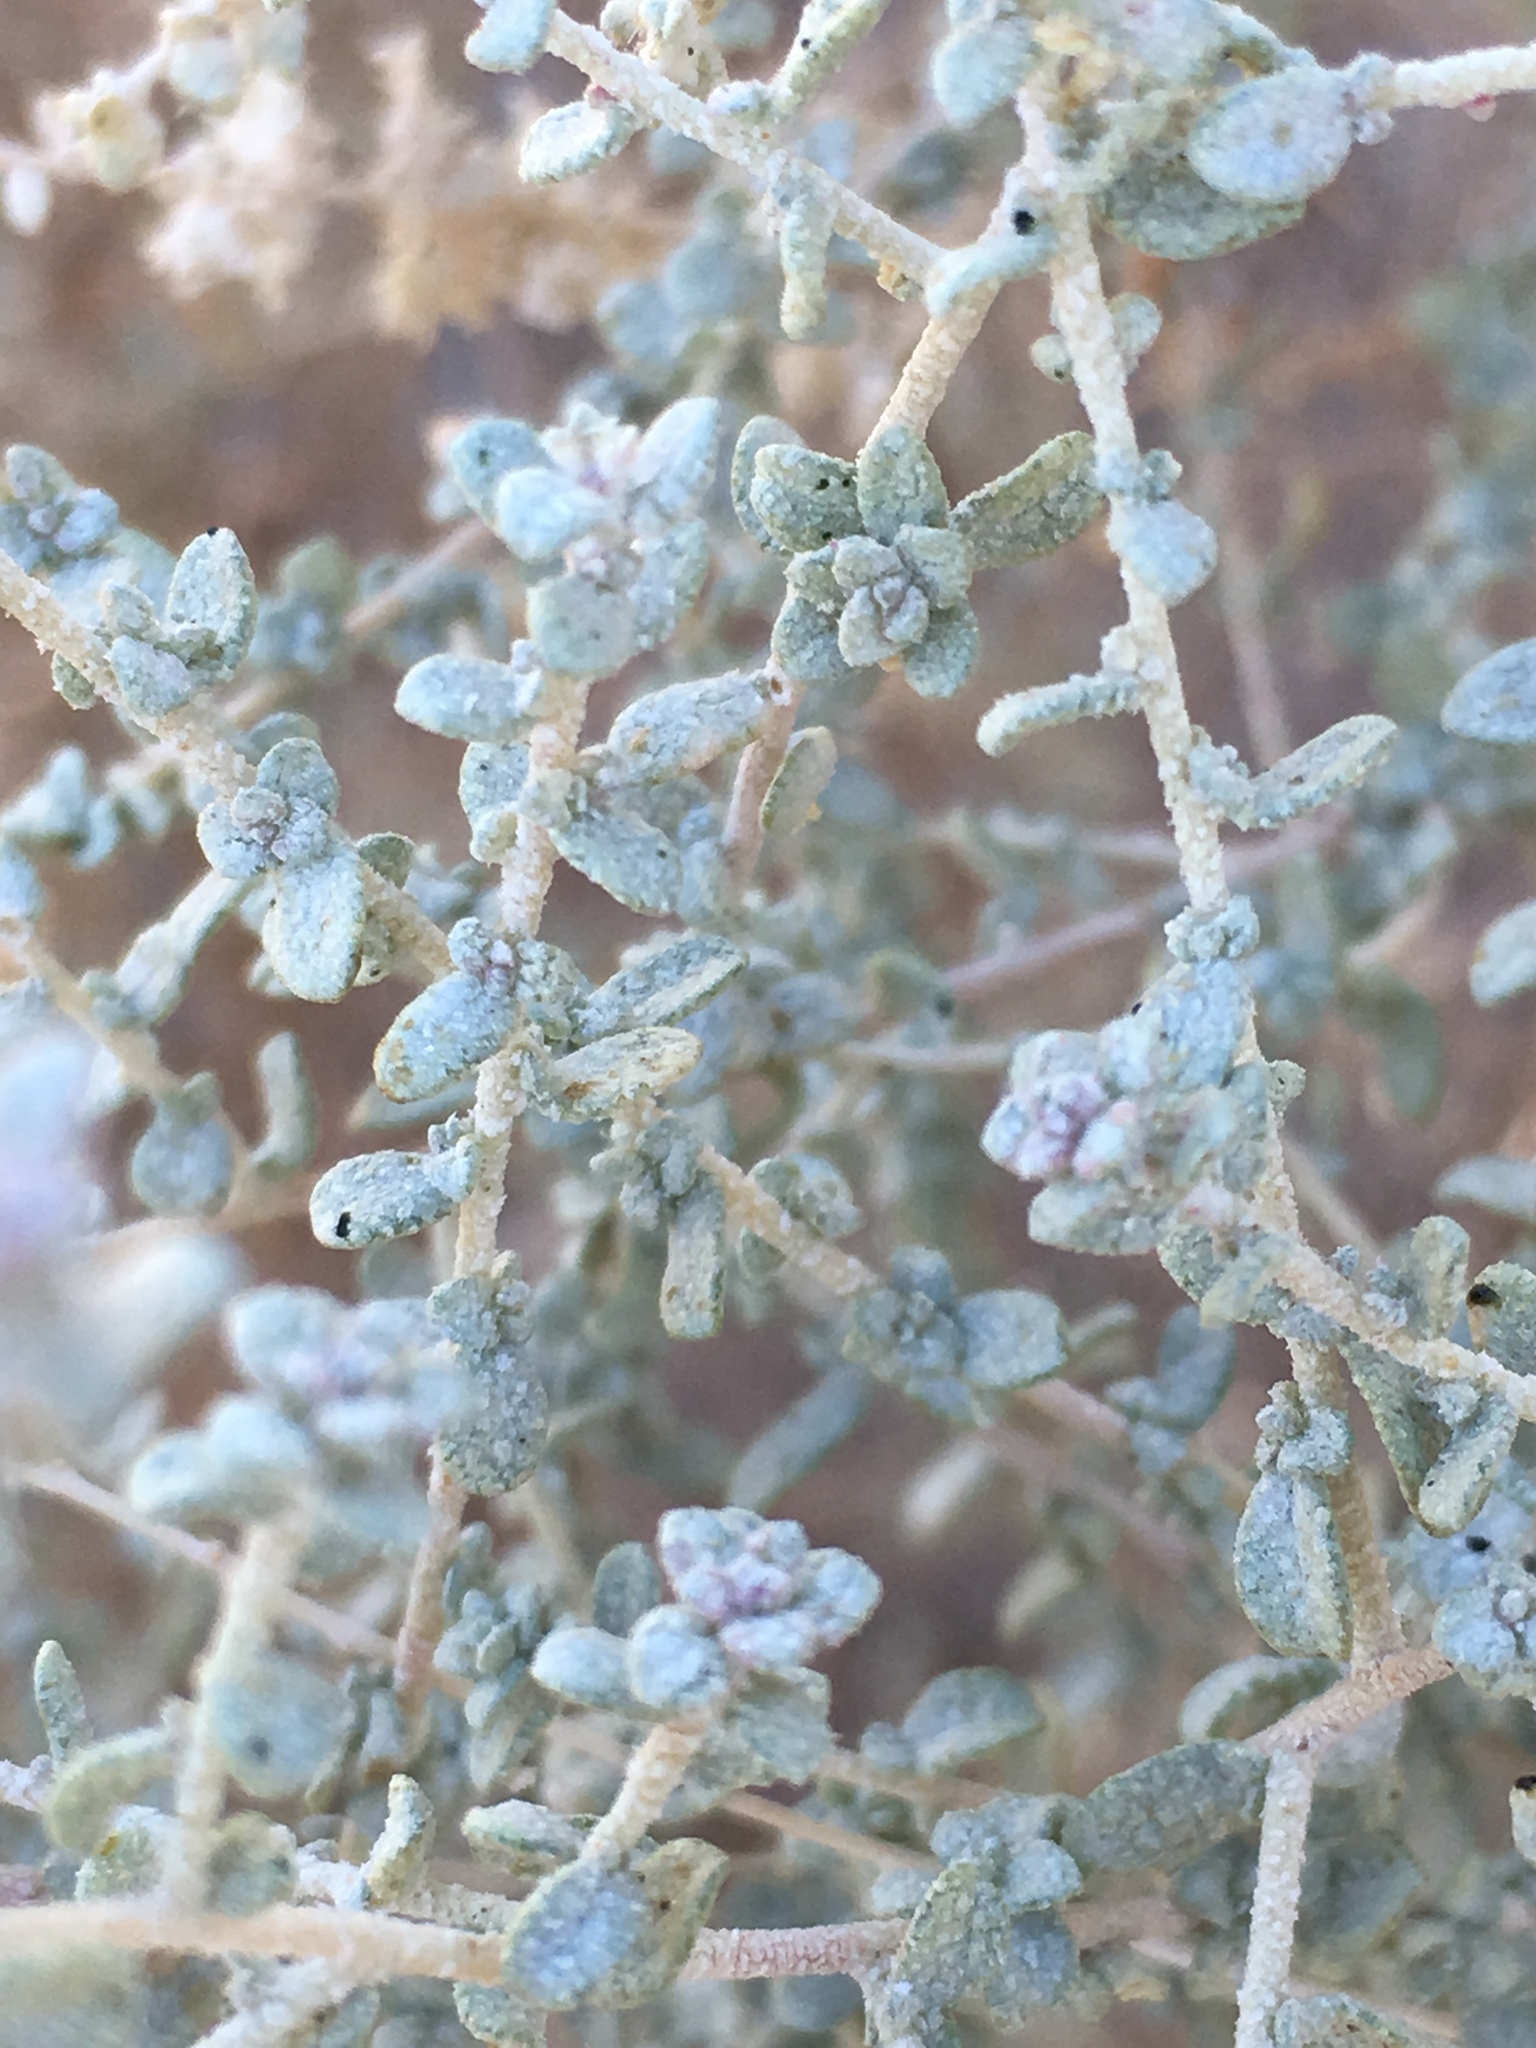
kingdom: Plantae
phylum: Tracheophyta
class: Magnoliopsida
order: Caryophyllales
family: Amaranthaceae
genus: Atriplex
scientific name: Atriplex polycarpa
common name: Desert saltbush
